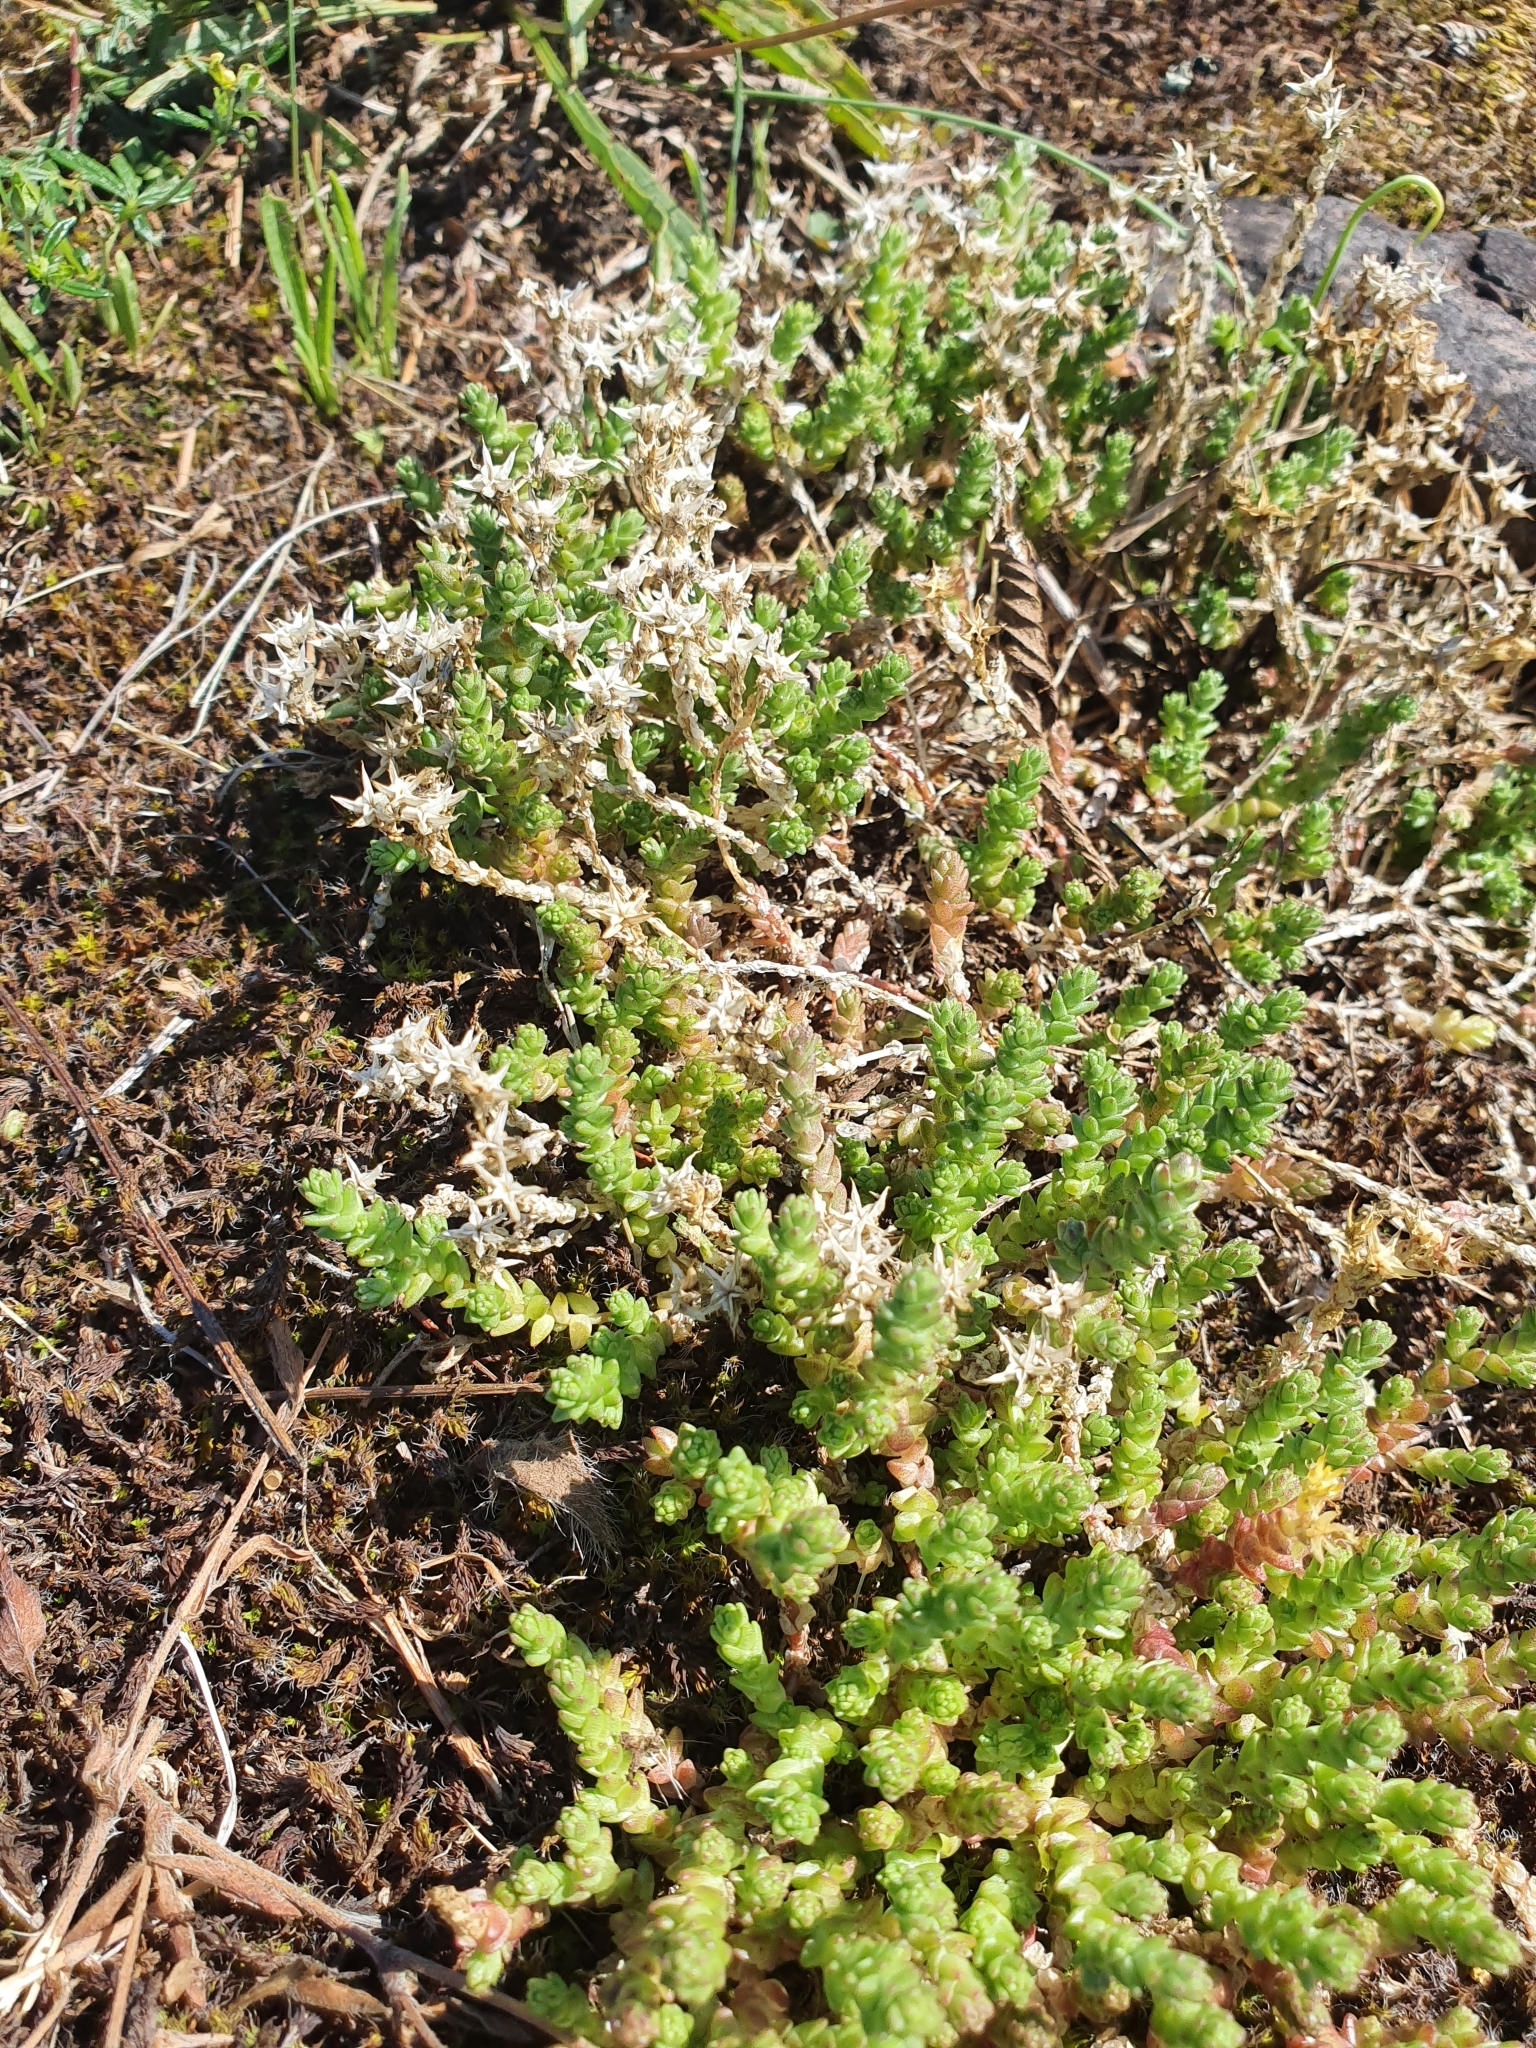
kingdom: Plantae
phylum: Tracheophyta
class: Magnoliopsida
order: Saxifragales
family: Crassulaceae
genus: Sedum
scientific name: Sedum acre
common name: Biting stonecrop
